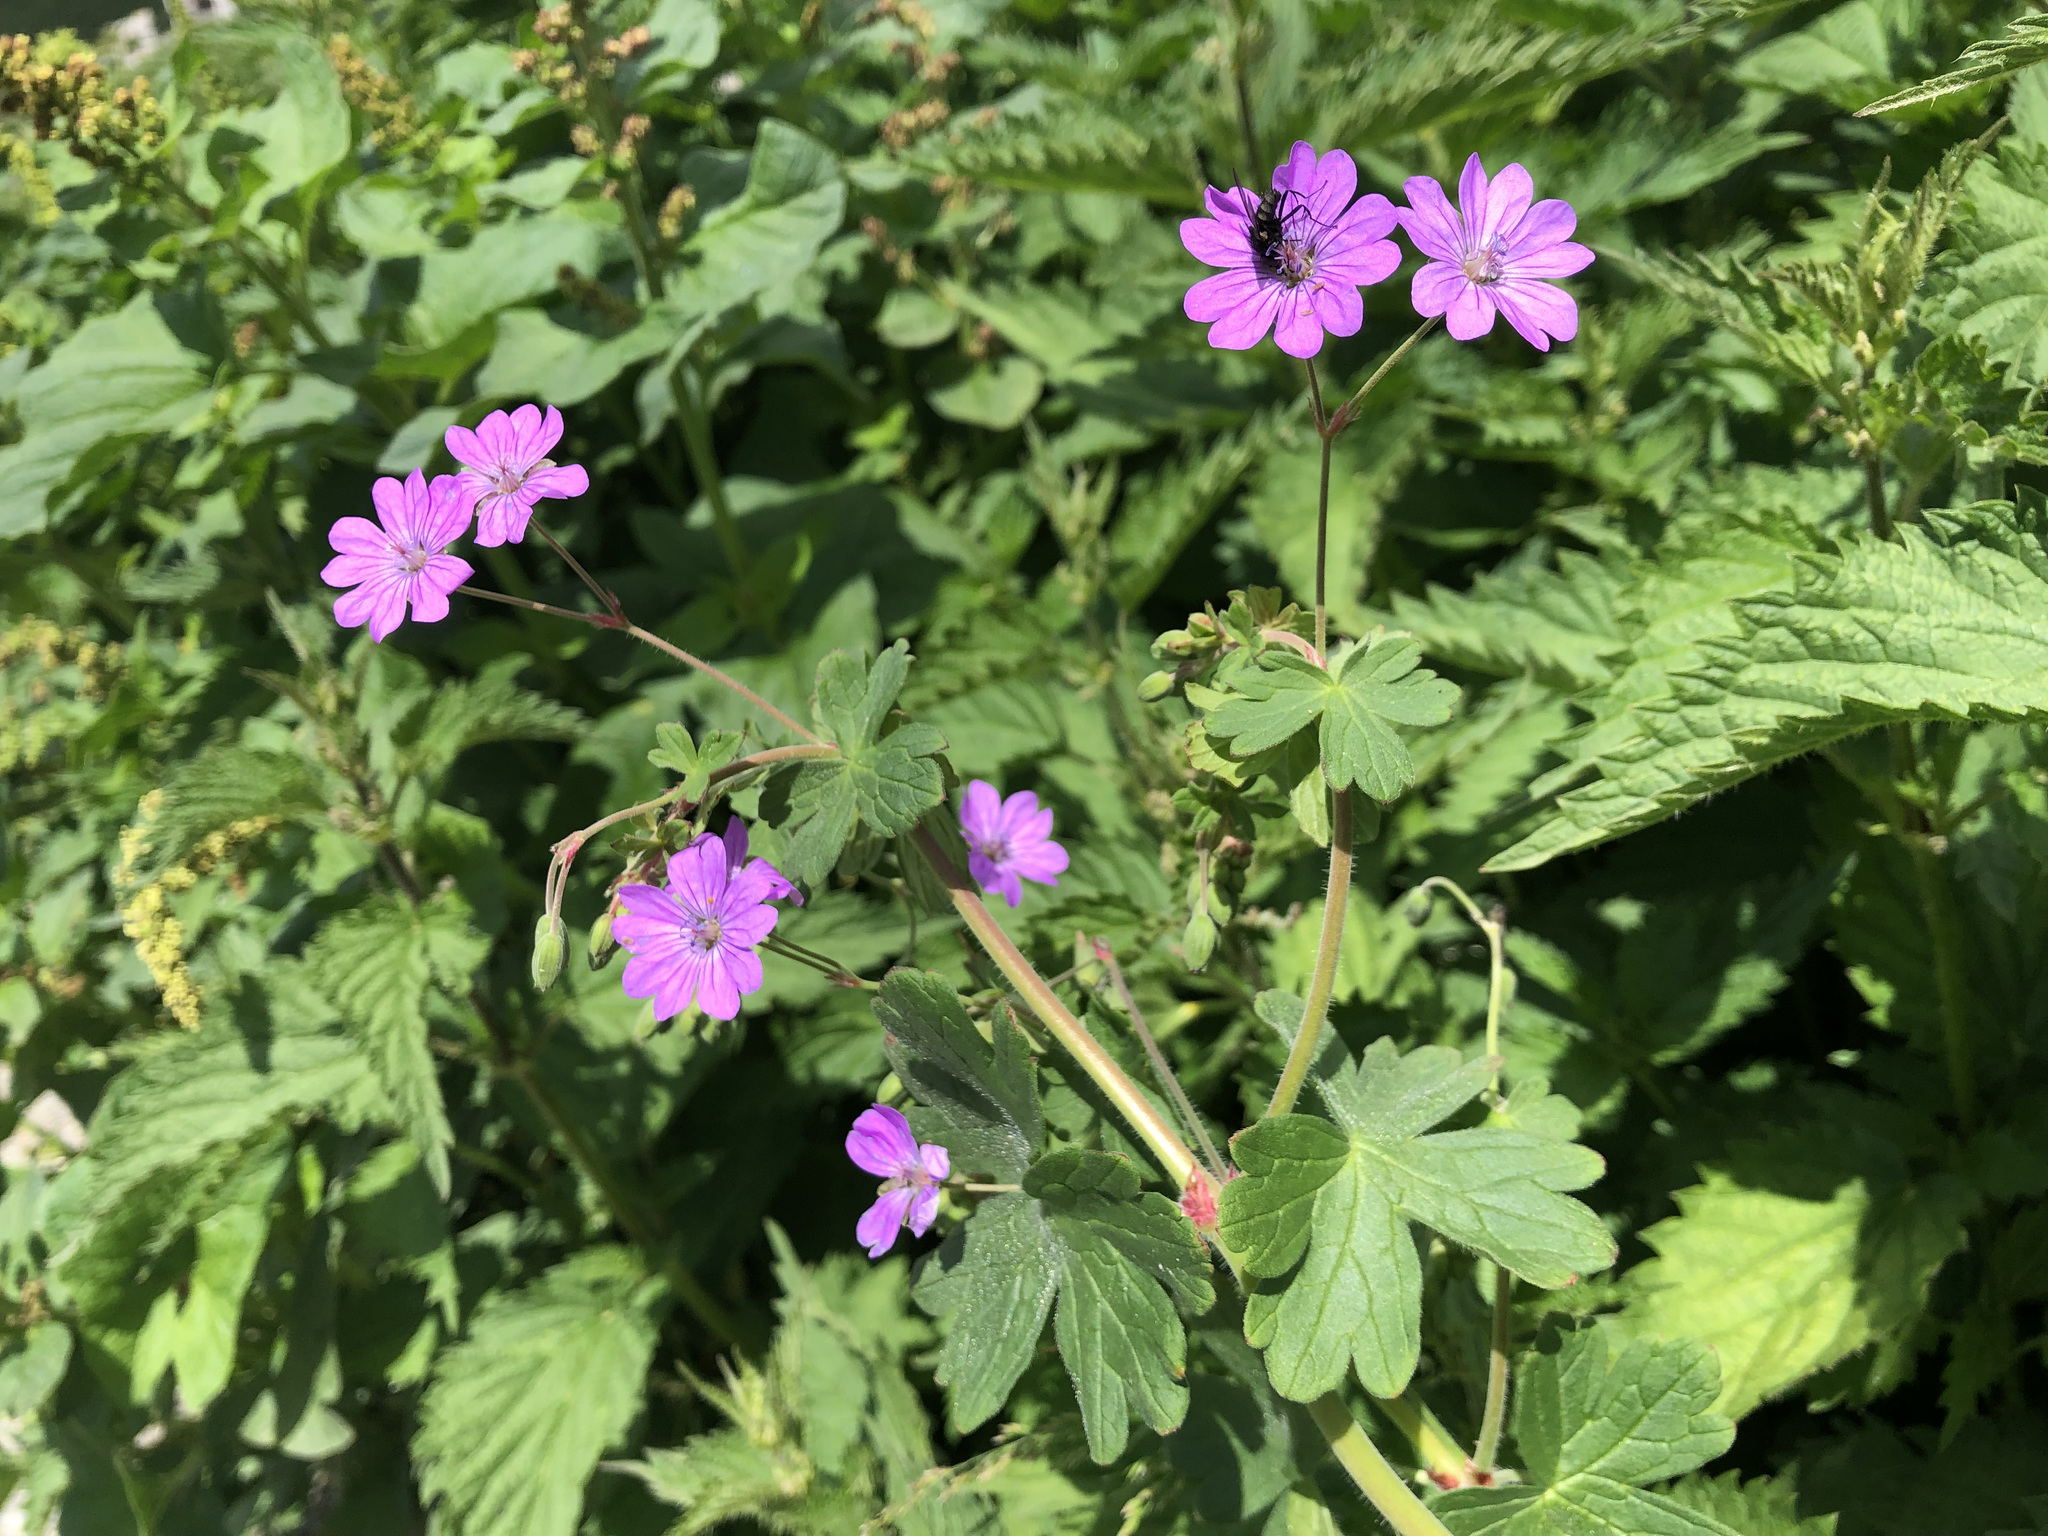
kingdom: Plantae
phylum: Tracheophyta
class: Magnoliopsida
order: Geraniales
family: Geraniaceae
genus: Geranium
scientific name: Geranium pyrenaicum
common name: Hedgerow crane's-bill
